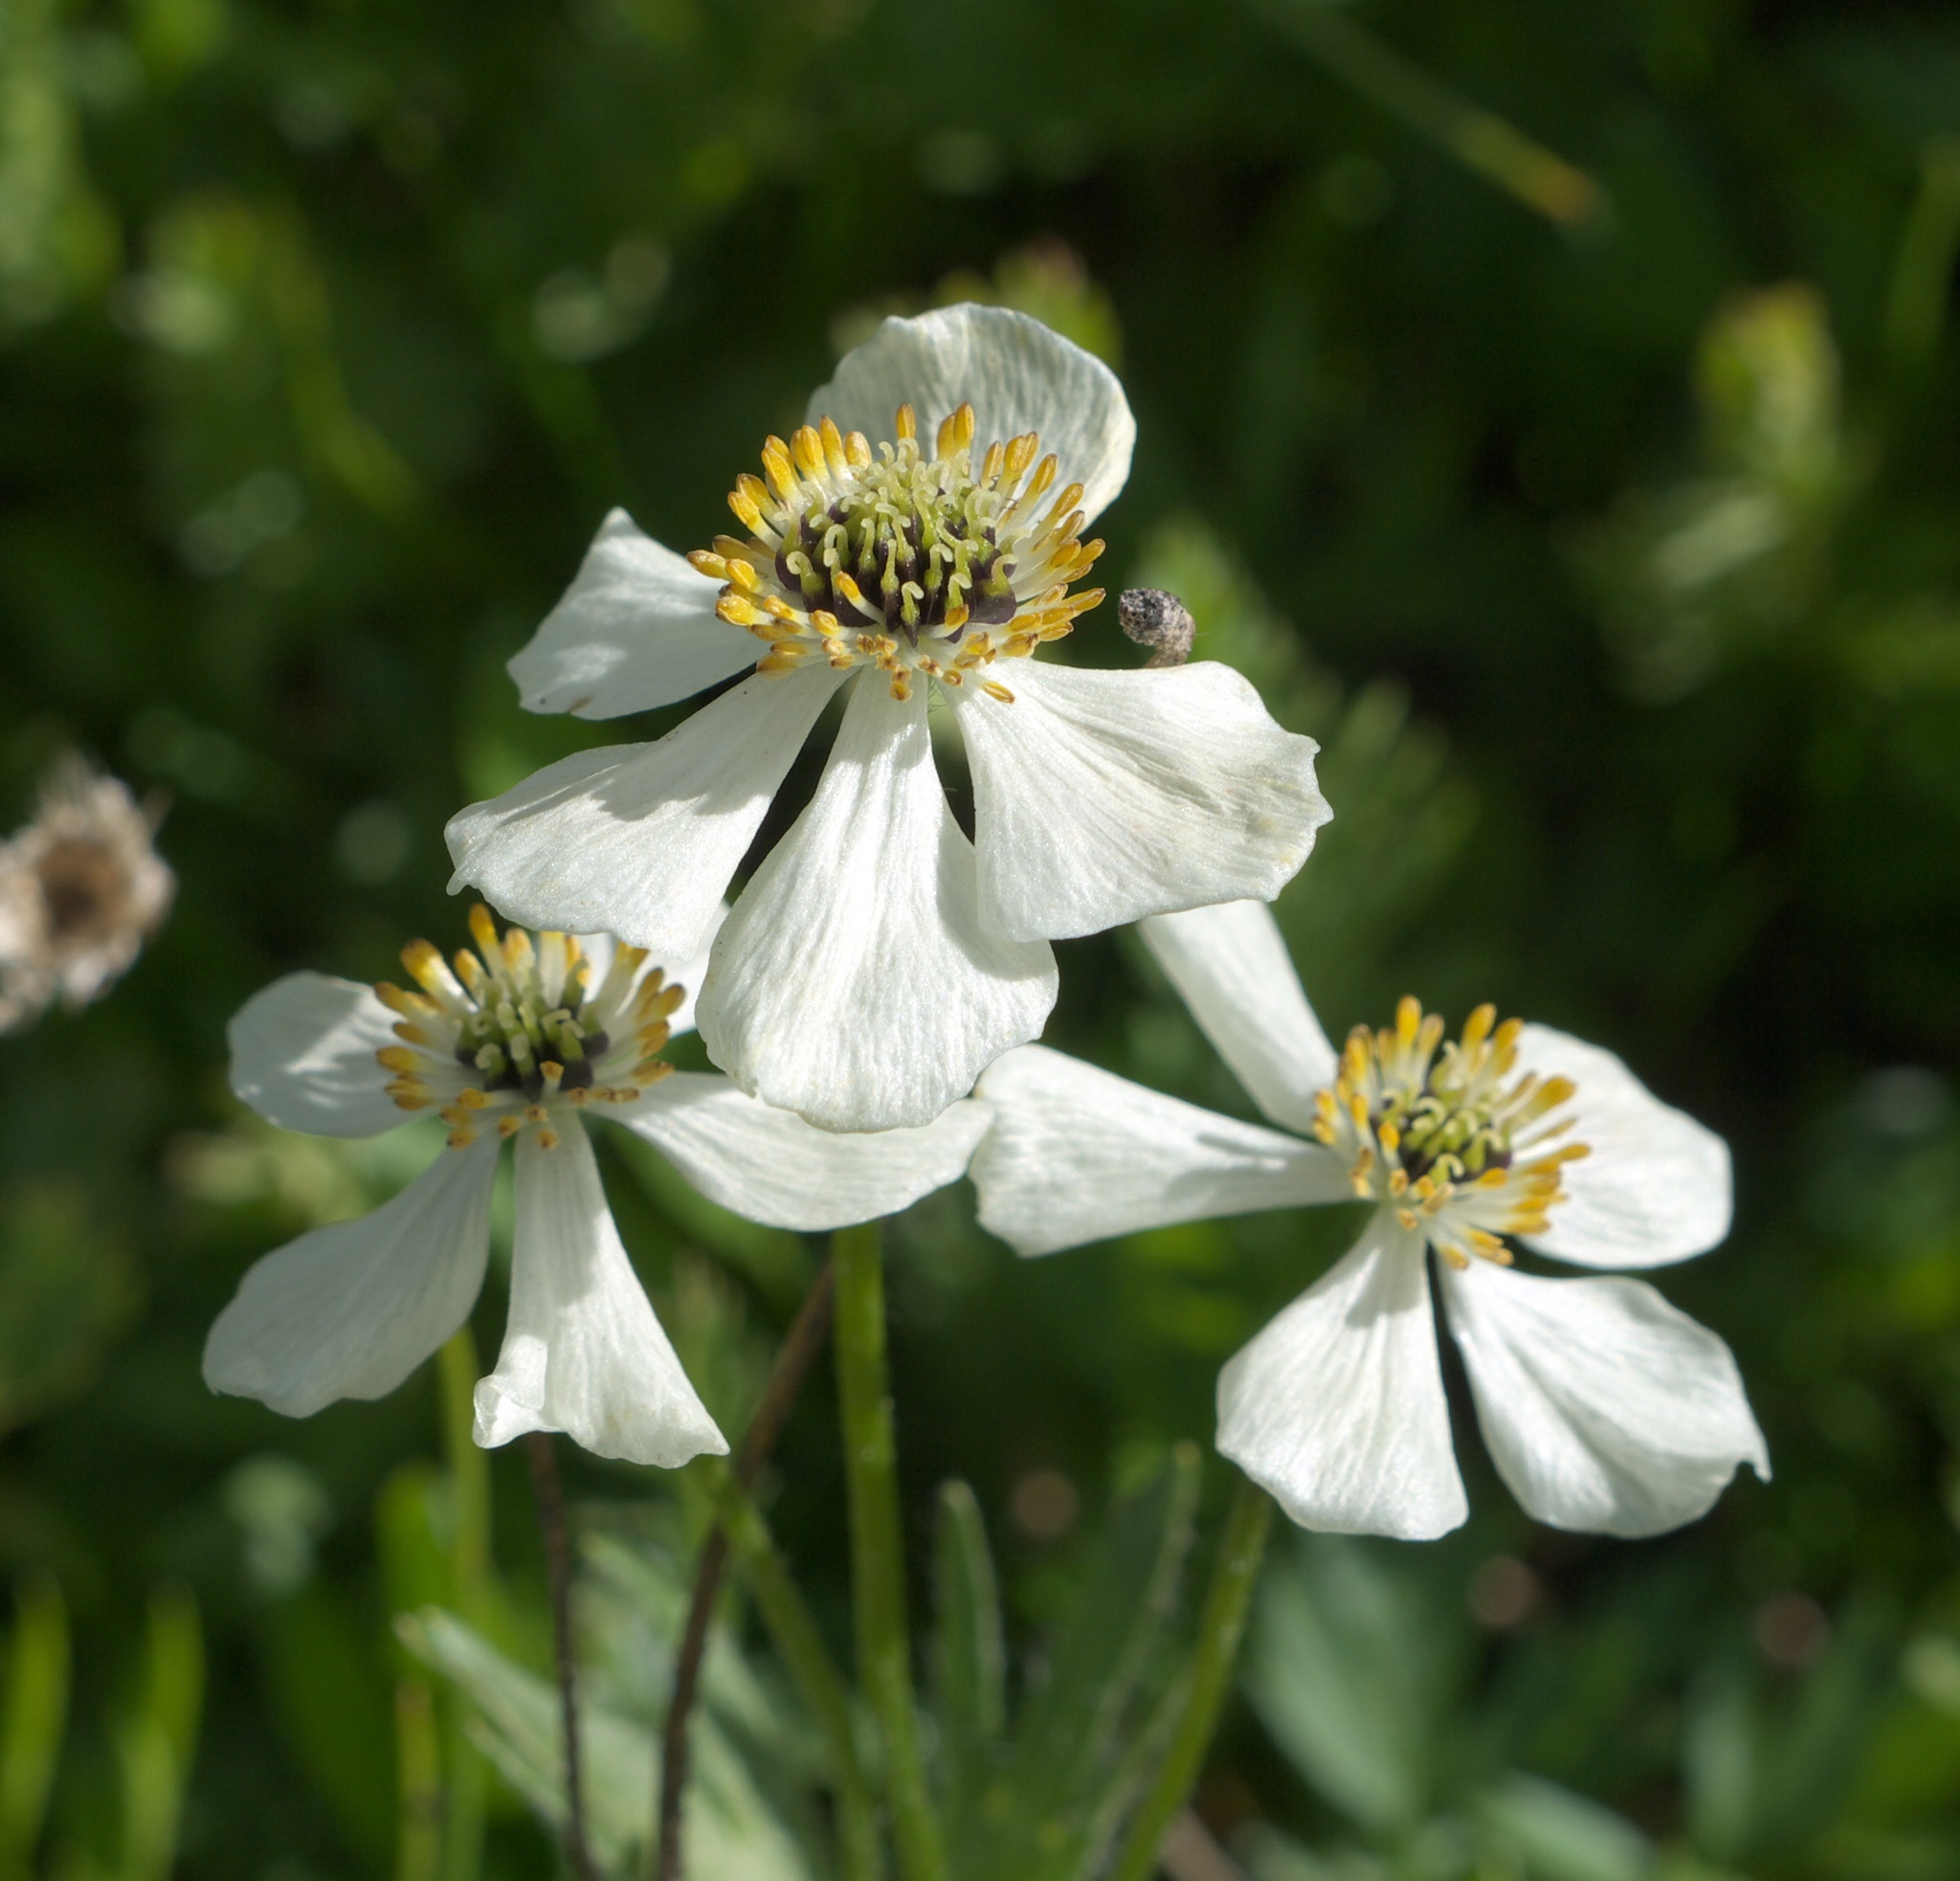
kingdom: Plantae
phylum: Tracheophyta
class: Magnoliopsida
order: Ranunculales
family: Ranunculaceae
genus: Anemonastrum
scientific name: Anemonastrum narcissiflorum
